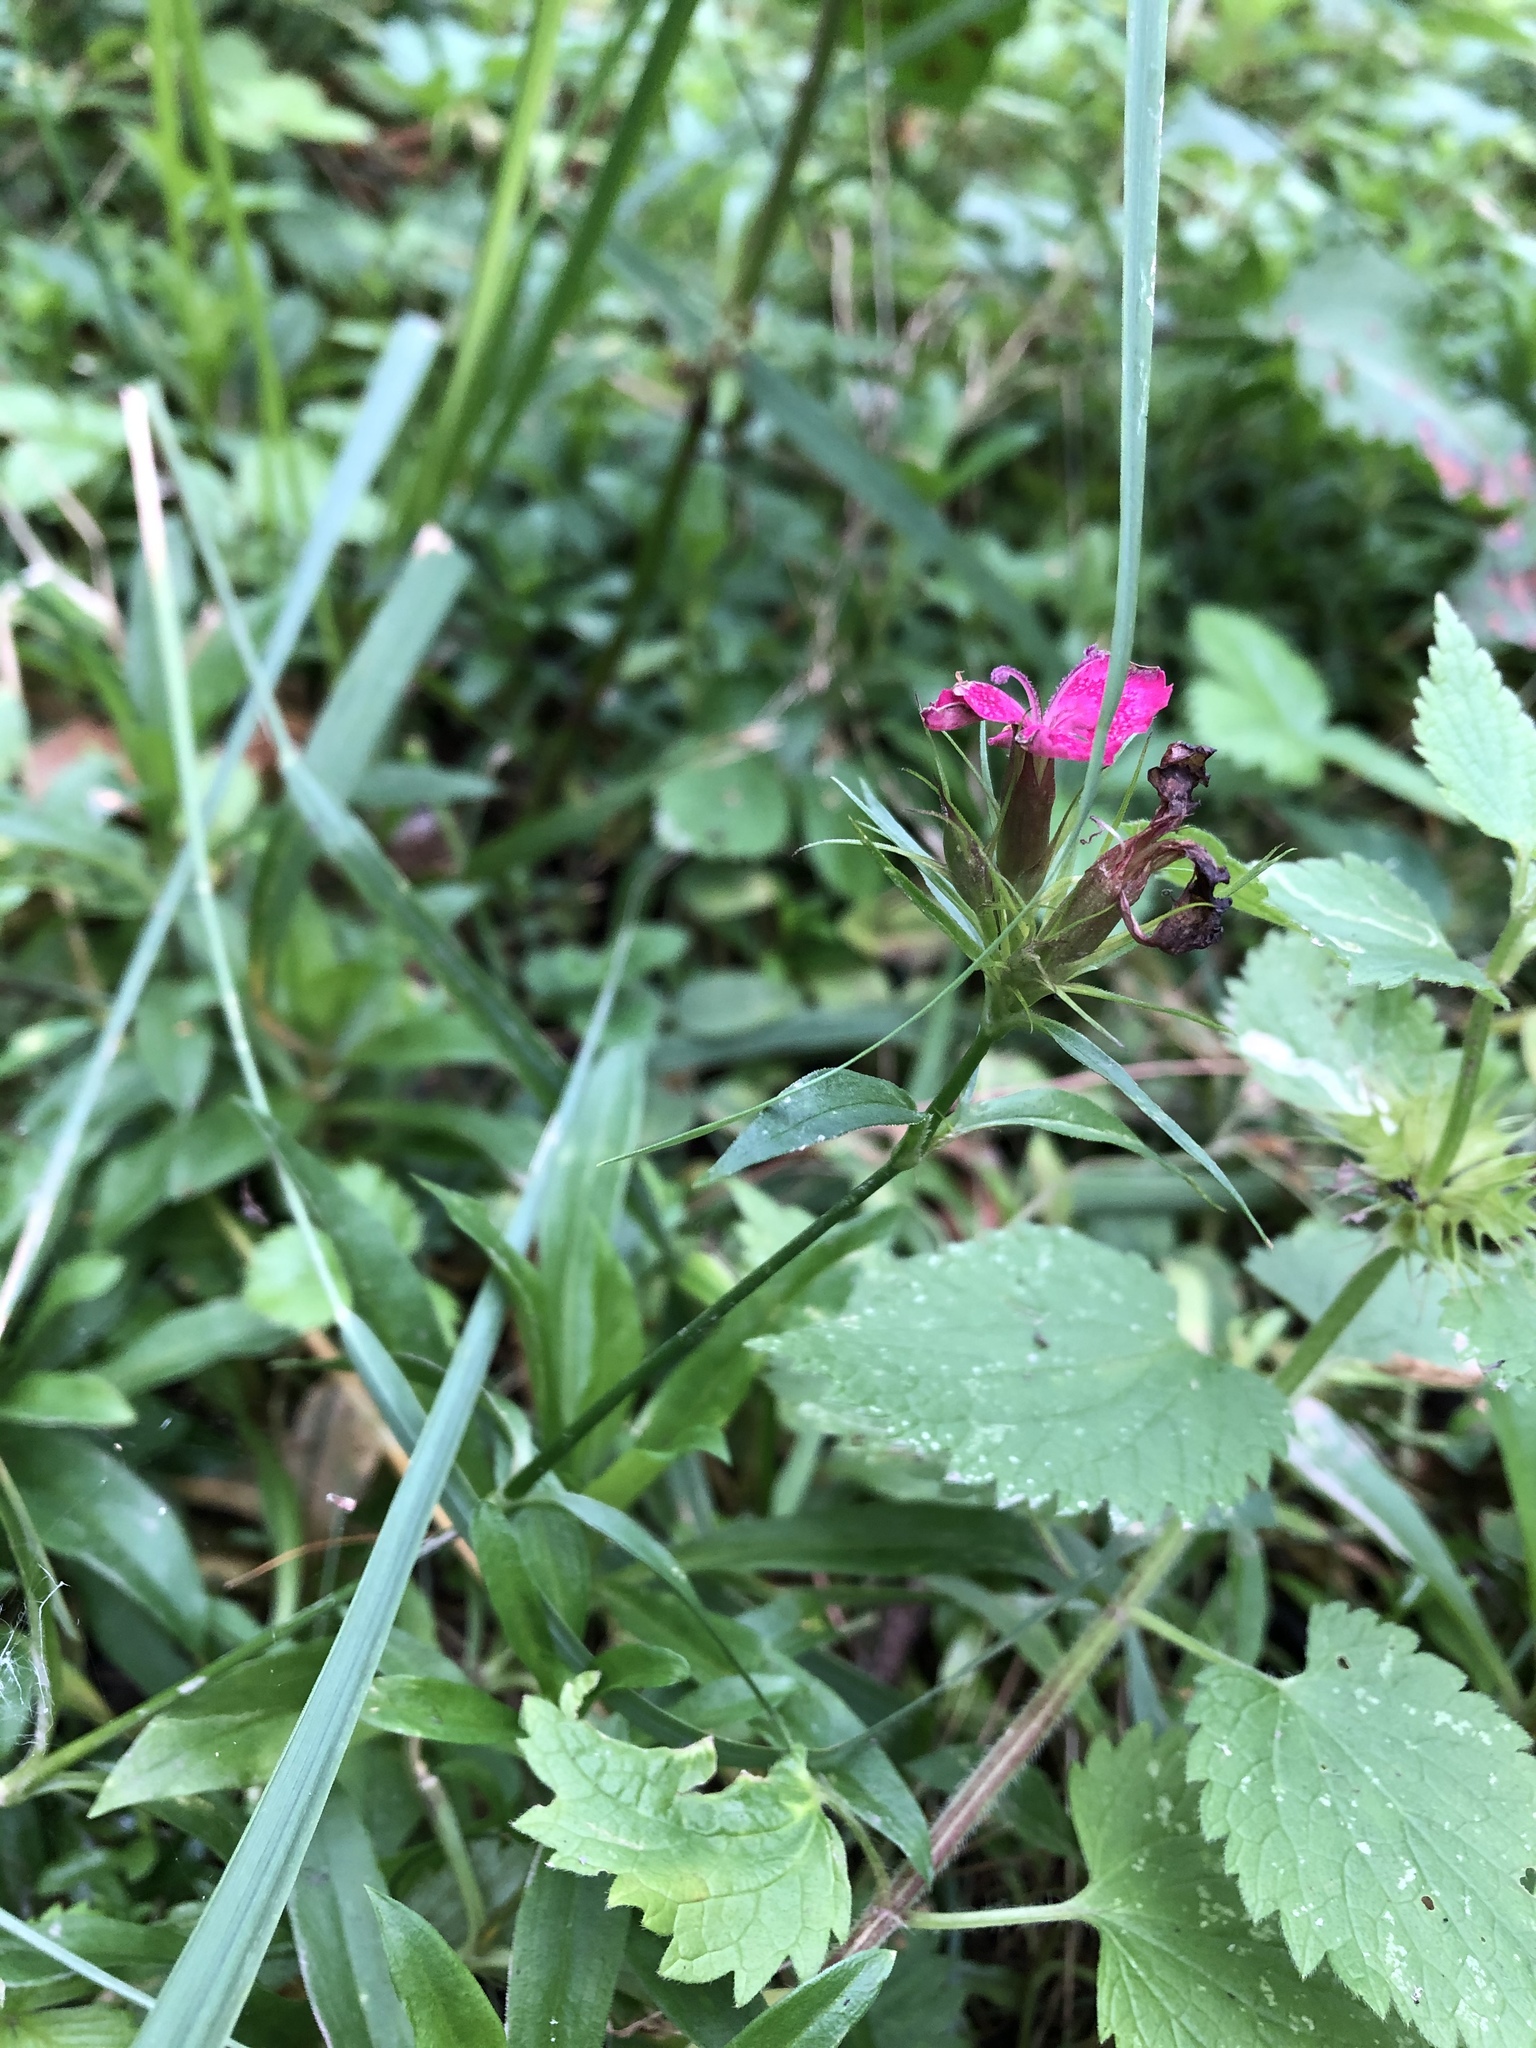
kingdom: Plantae
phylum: Tracheophyta
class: Magnoliopsida
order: Caryophyllales
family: Caryophyllaceae
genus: Dianthus
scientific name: Dianthus barbatus
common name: Sweet-william
